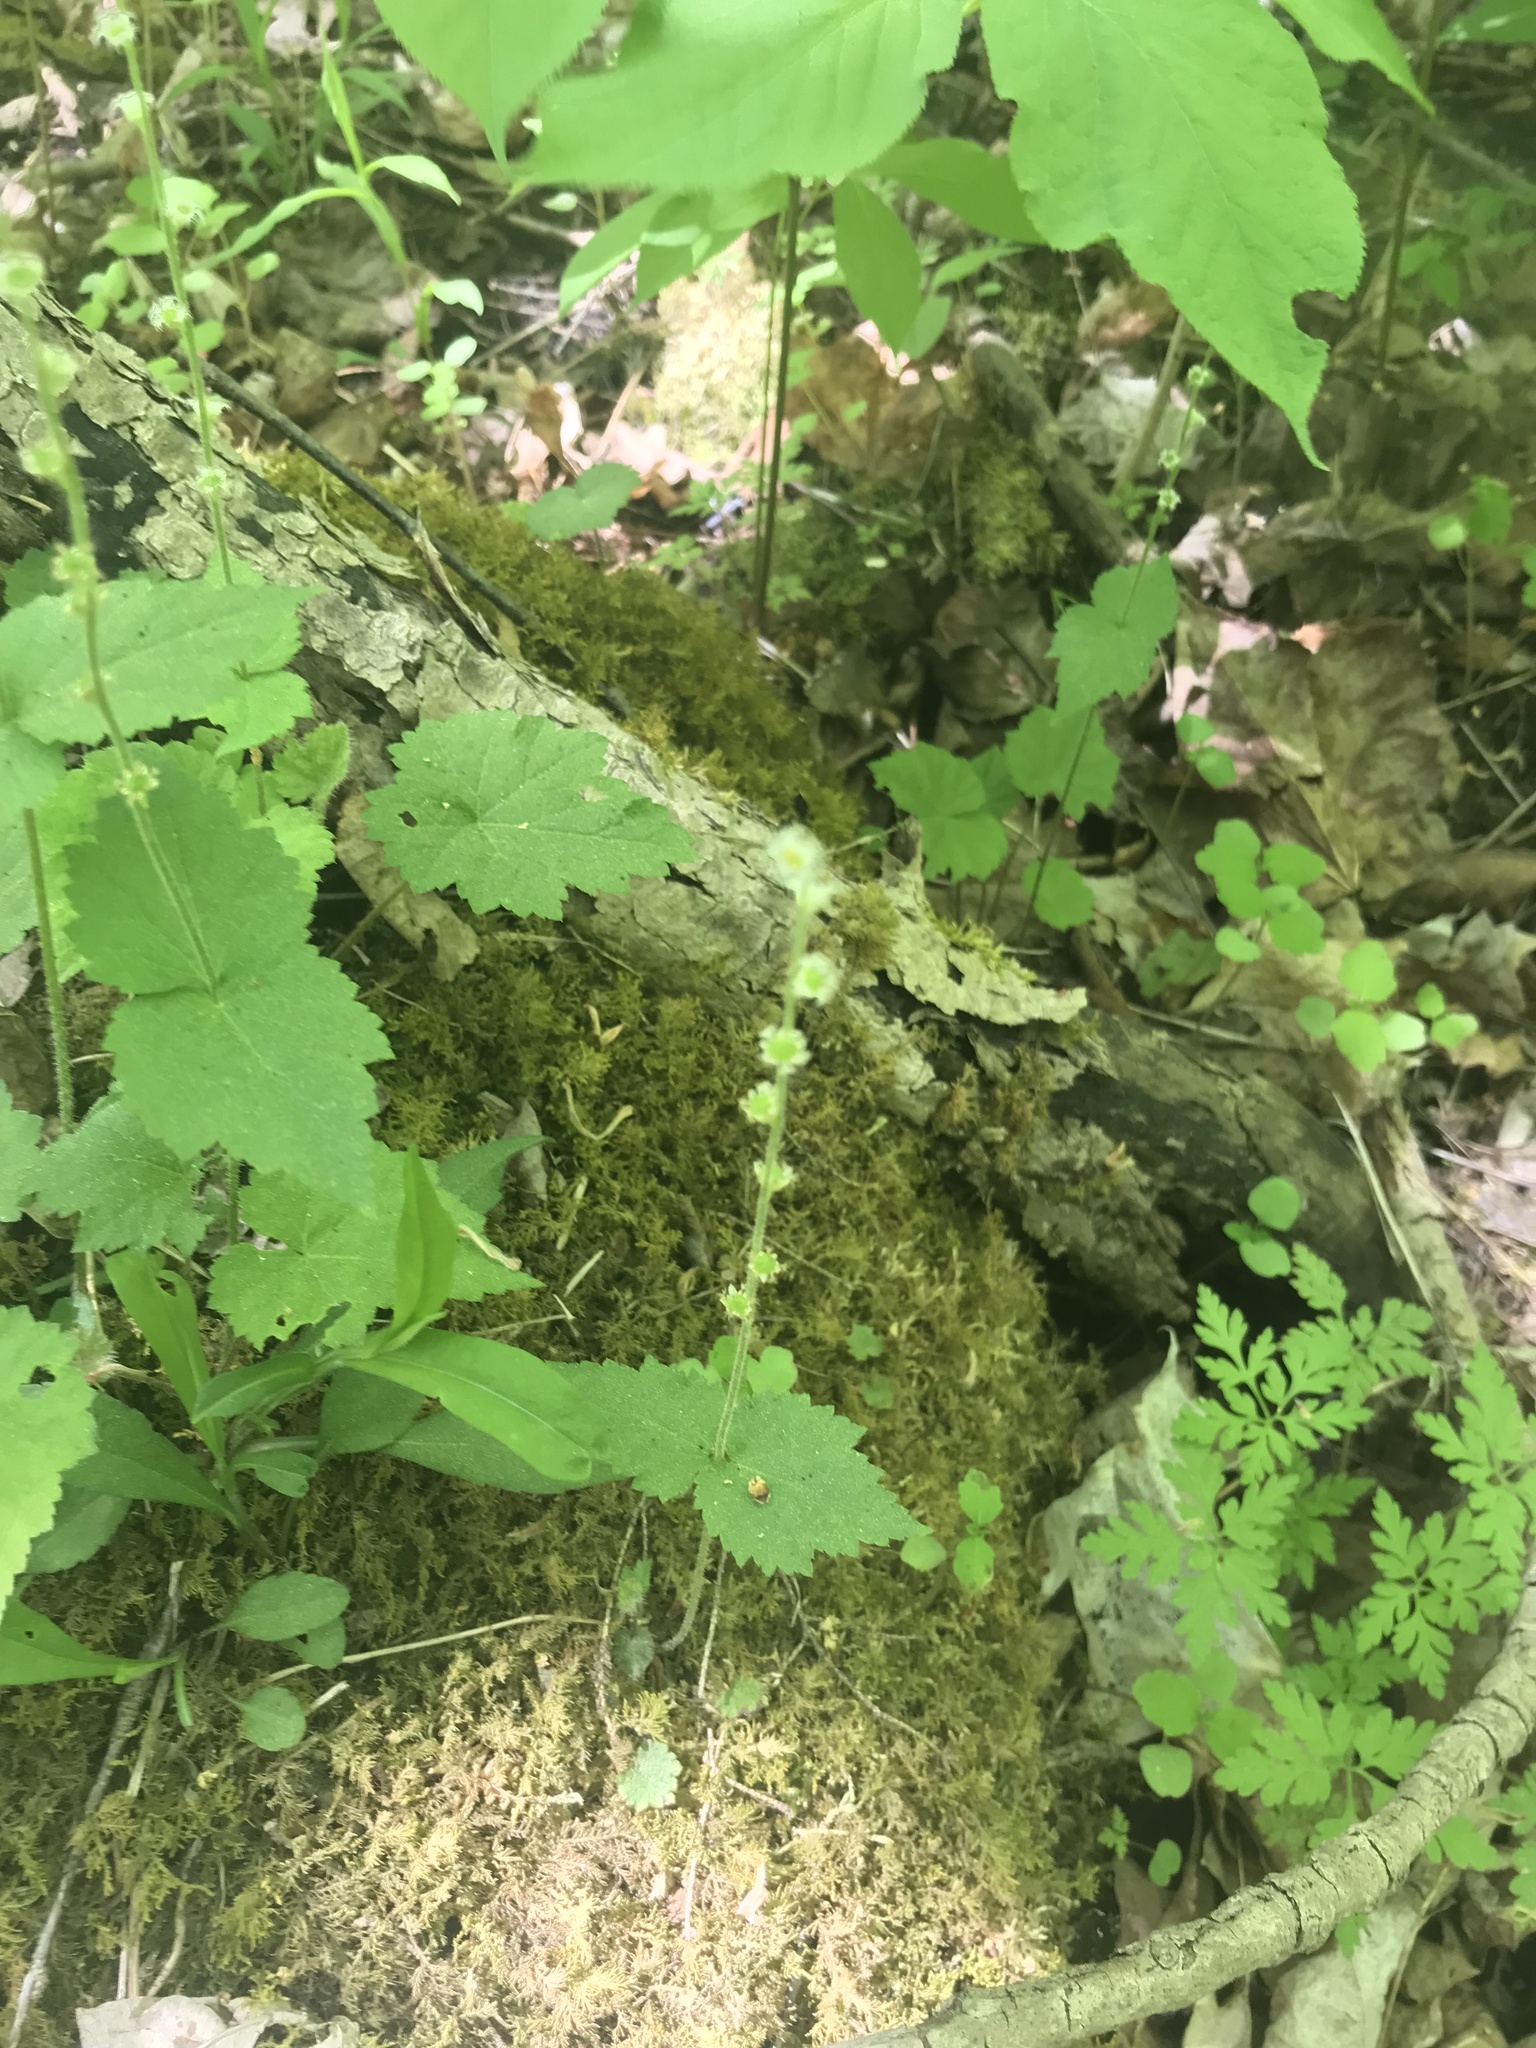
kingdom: Plantae
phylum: Tracheophyta
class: Magnoliopsida
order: Saxifragales
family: Saxifragaceae
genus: Mitella
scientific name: Mitella diphylla
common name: Coolwort
